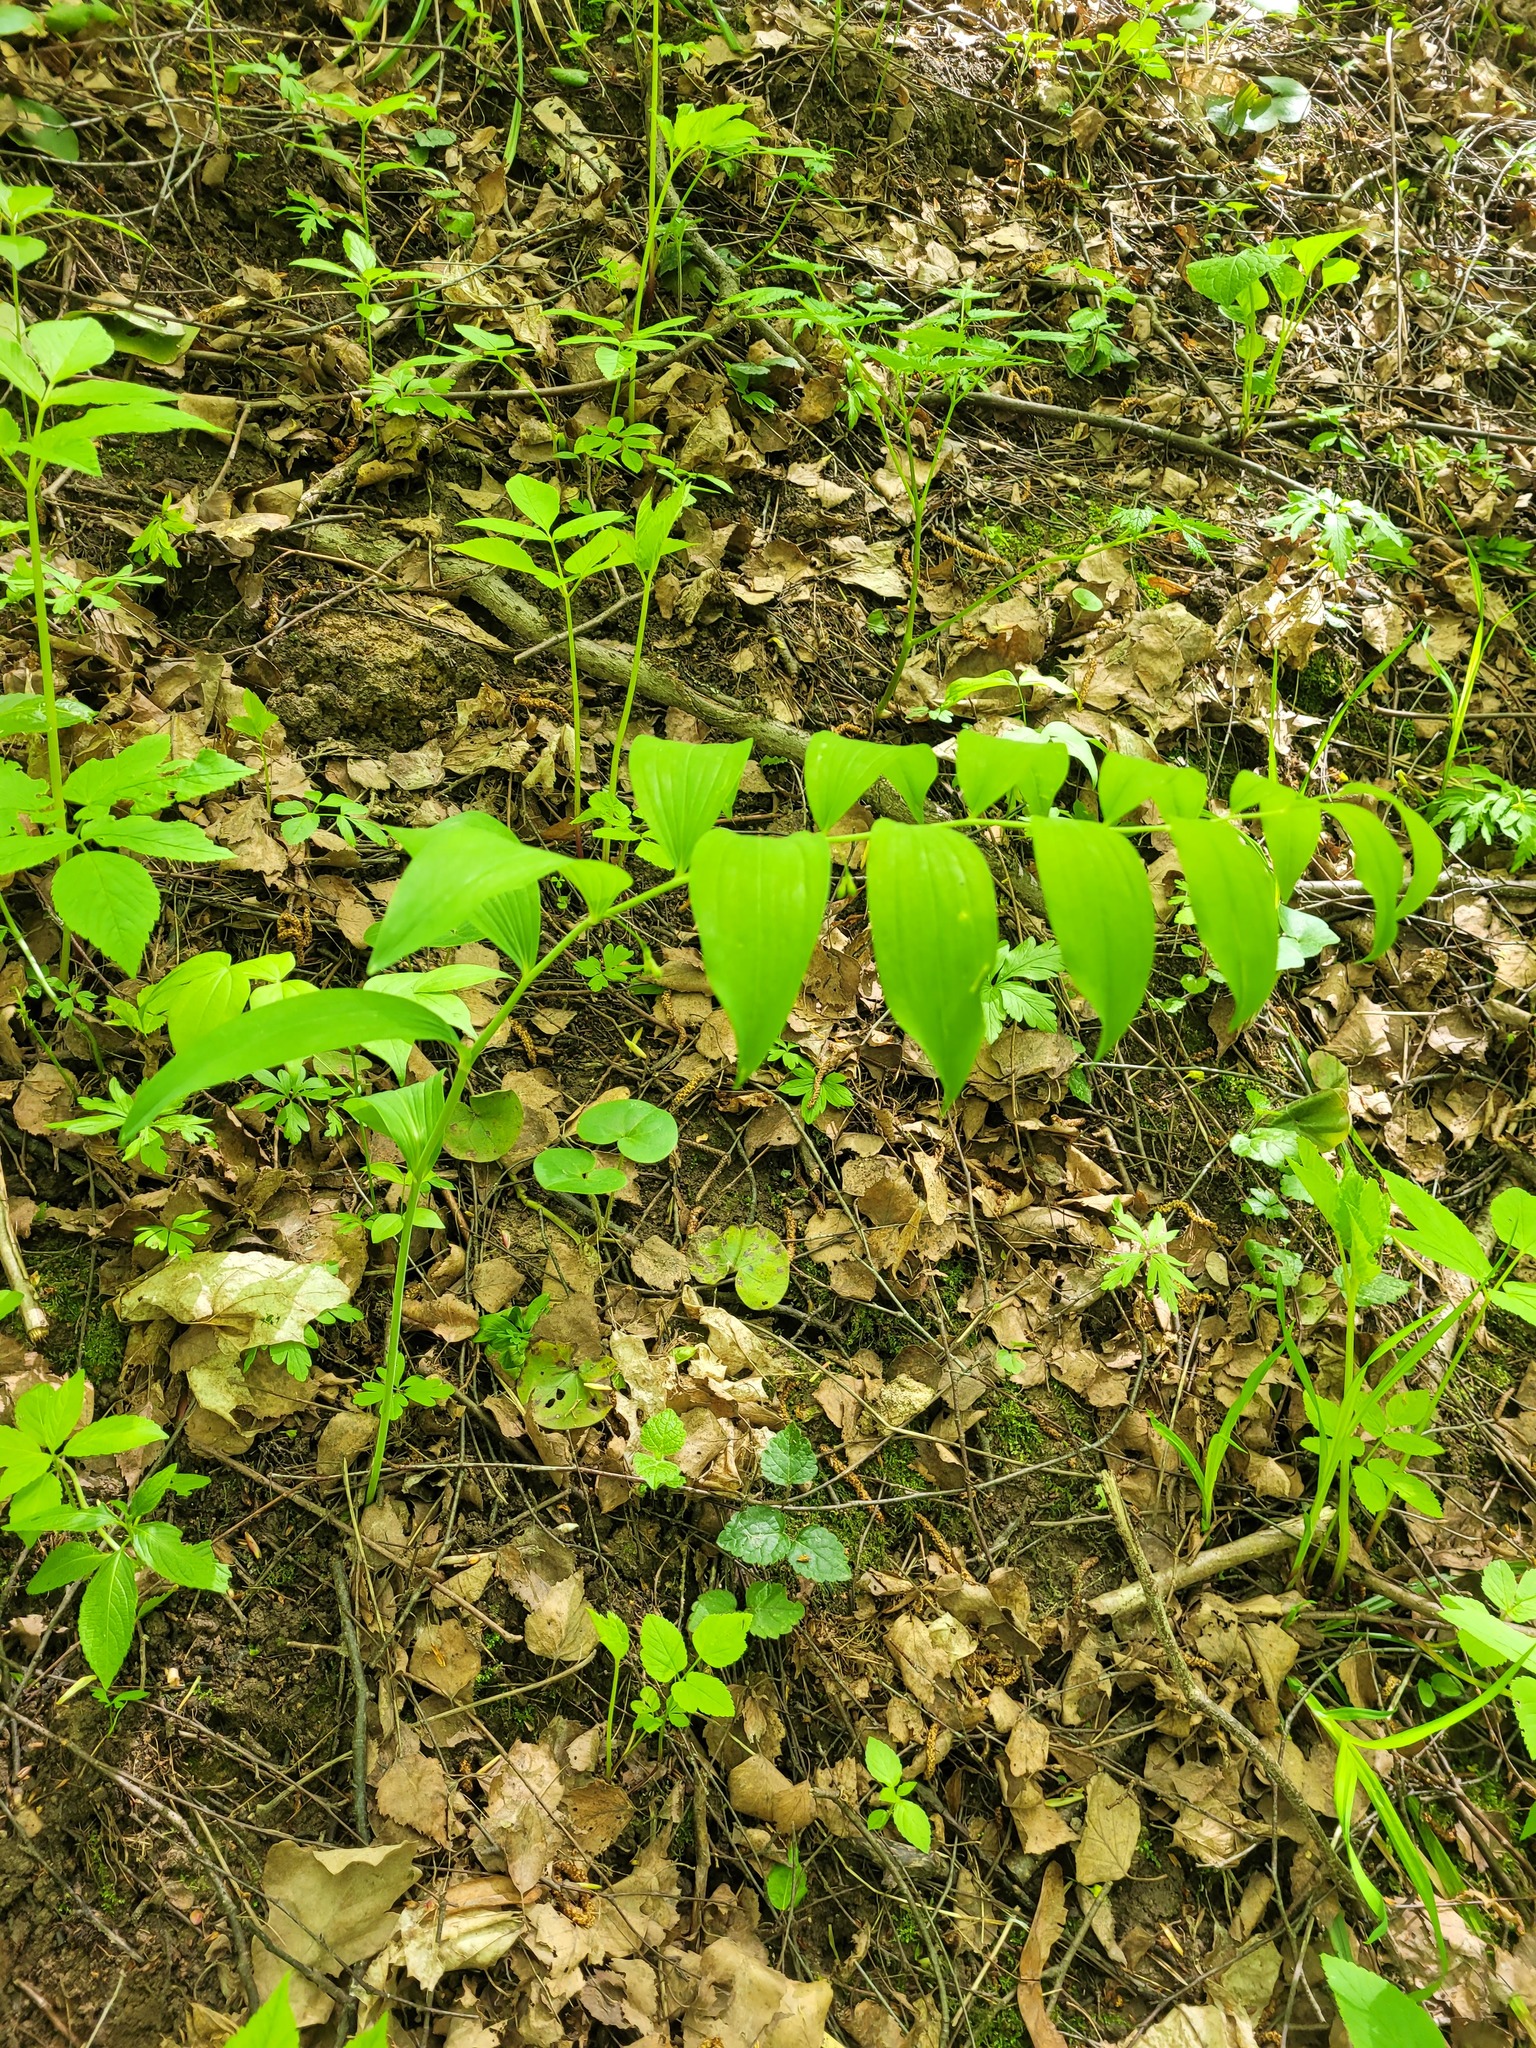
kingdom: Plantae
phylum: Tracheophyta
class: Liliopsida
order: Asparagales
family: Asparagaceae
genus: Polygonatum
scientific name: Polygonatum multiflorum
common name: Solomon's-seal
